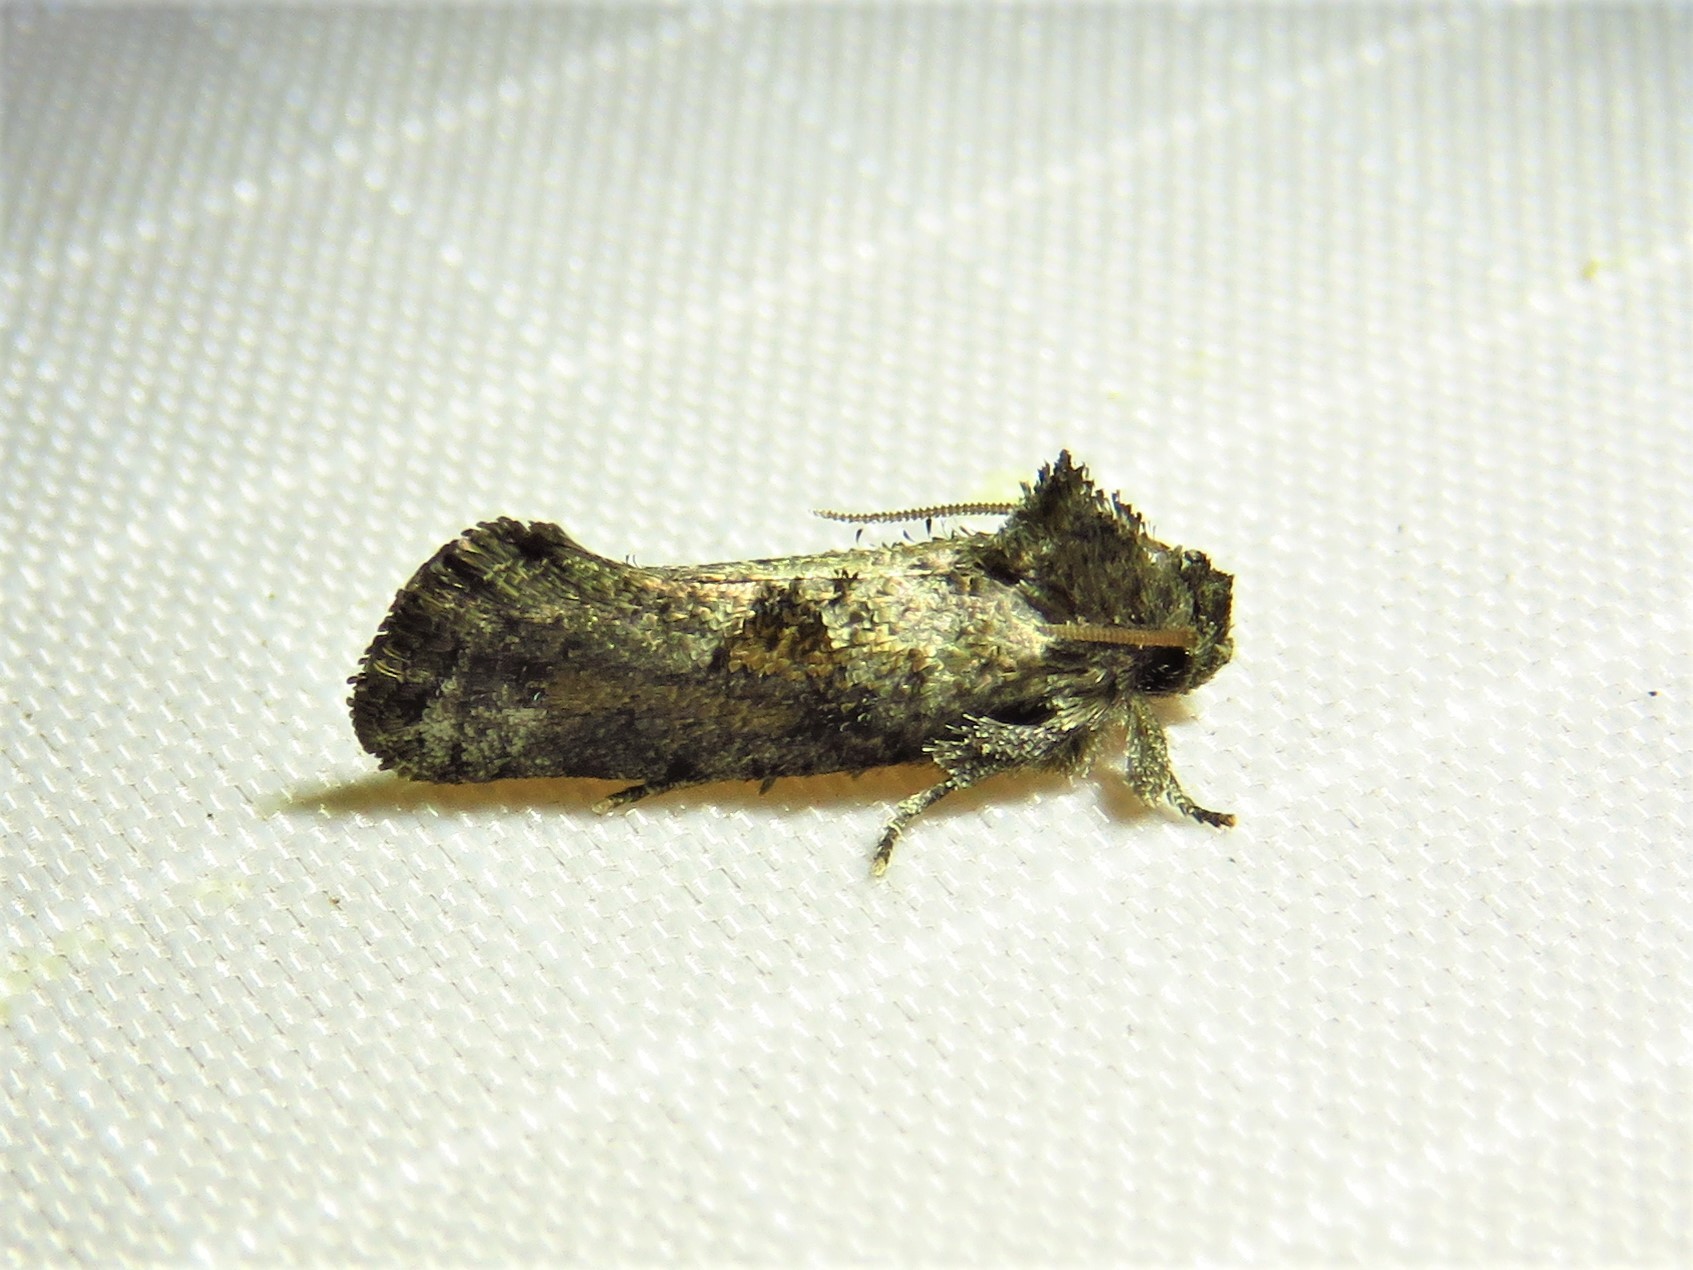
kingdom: Animalia
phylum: Arthropoda
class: Insecta
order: Lepidoptera
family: Tineidae
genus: Acrolophus
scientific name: Acrolophus piger
